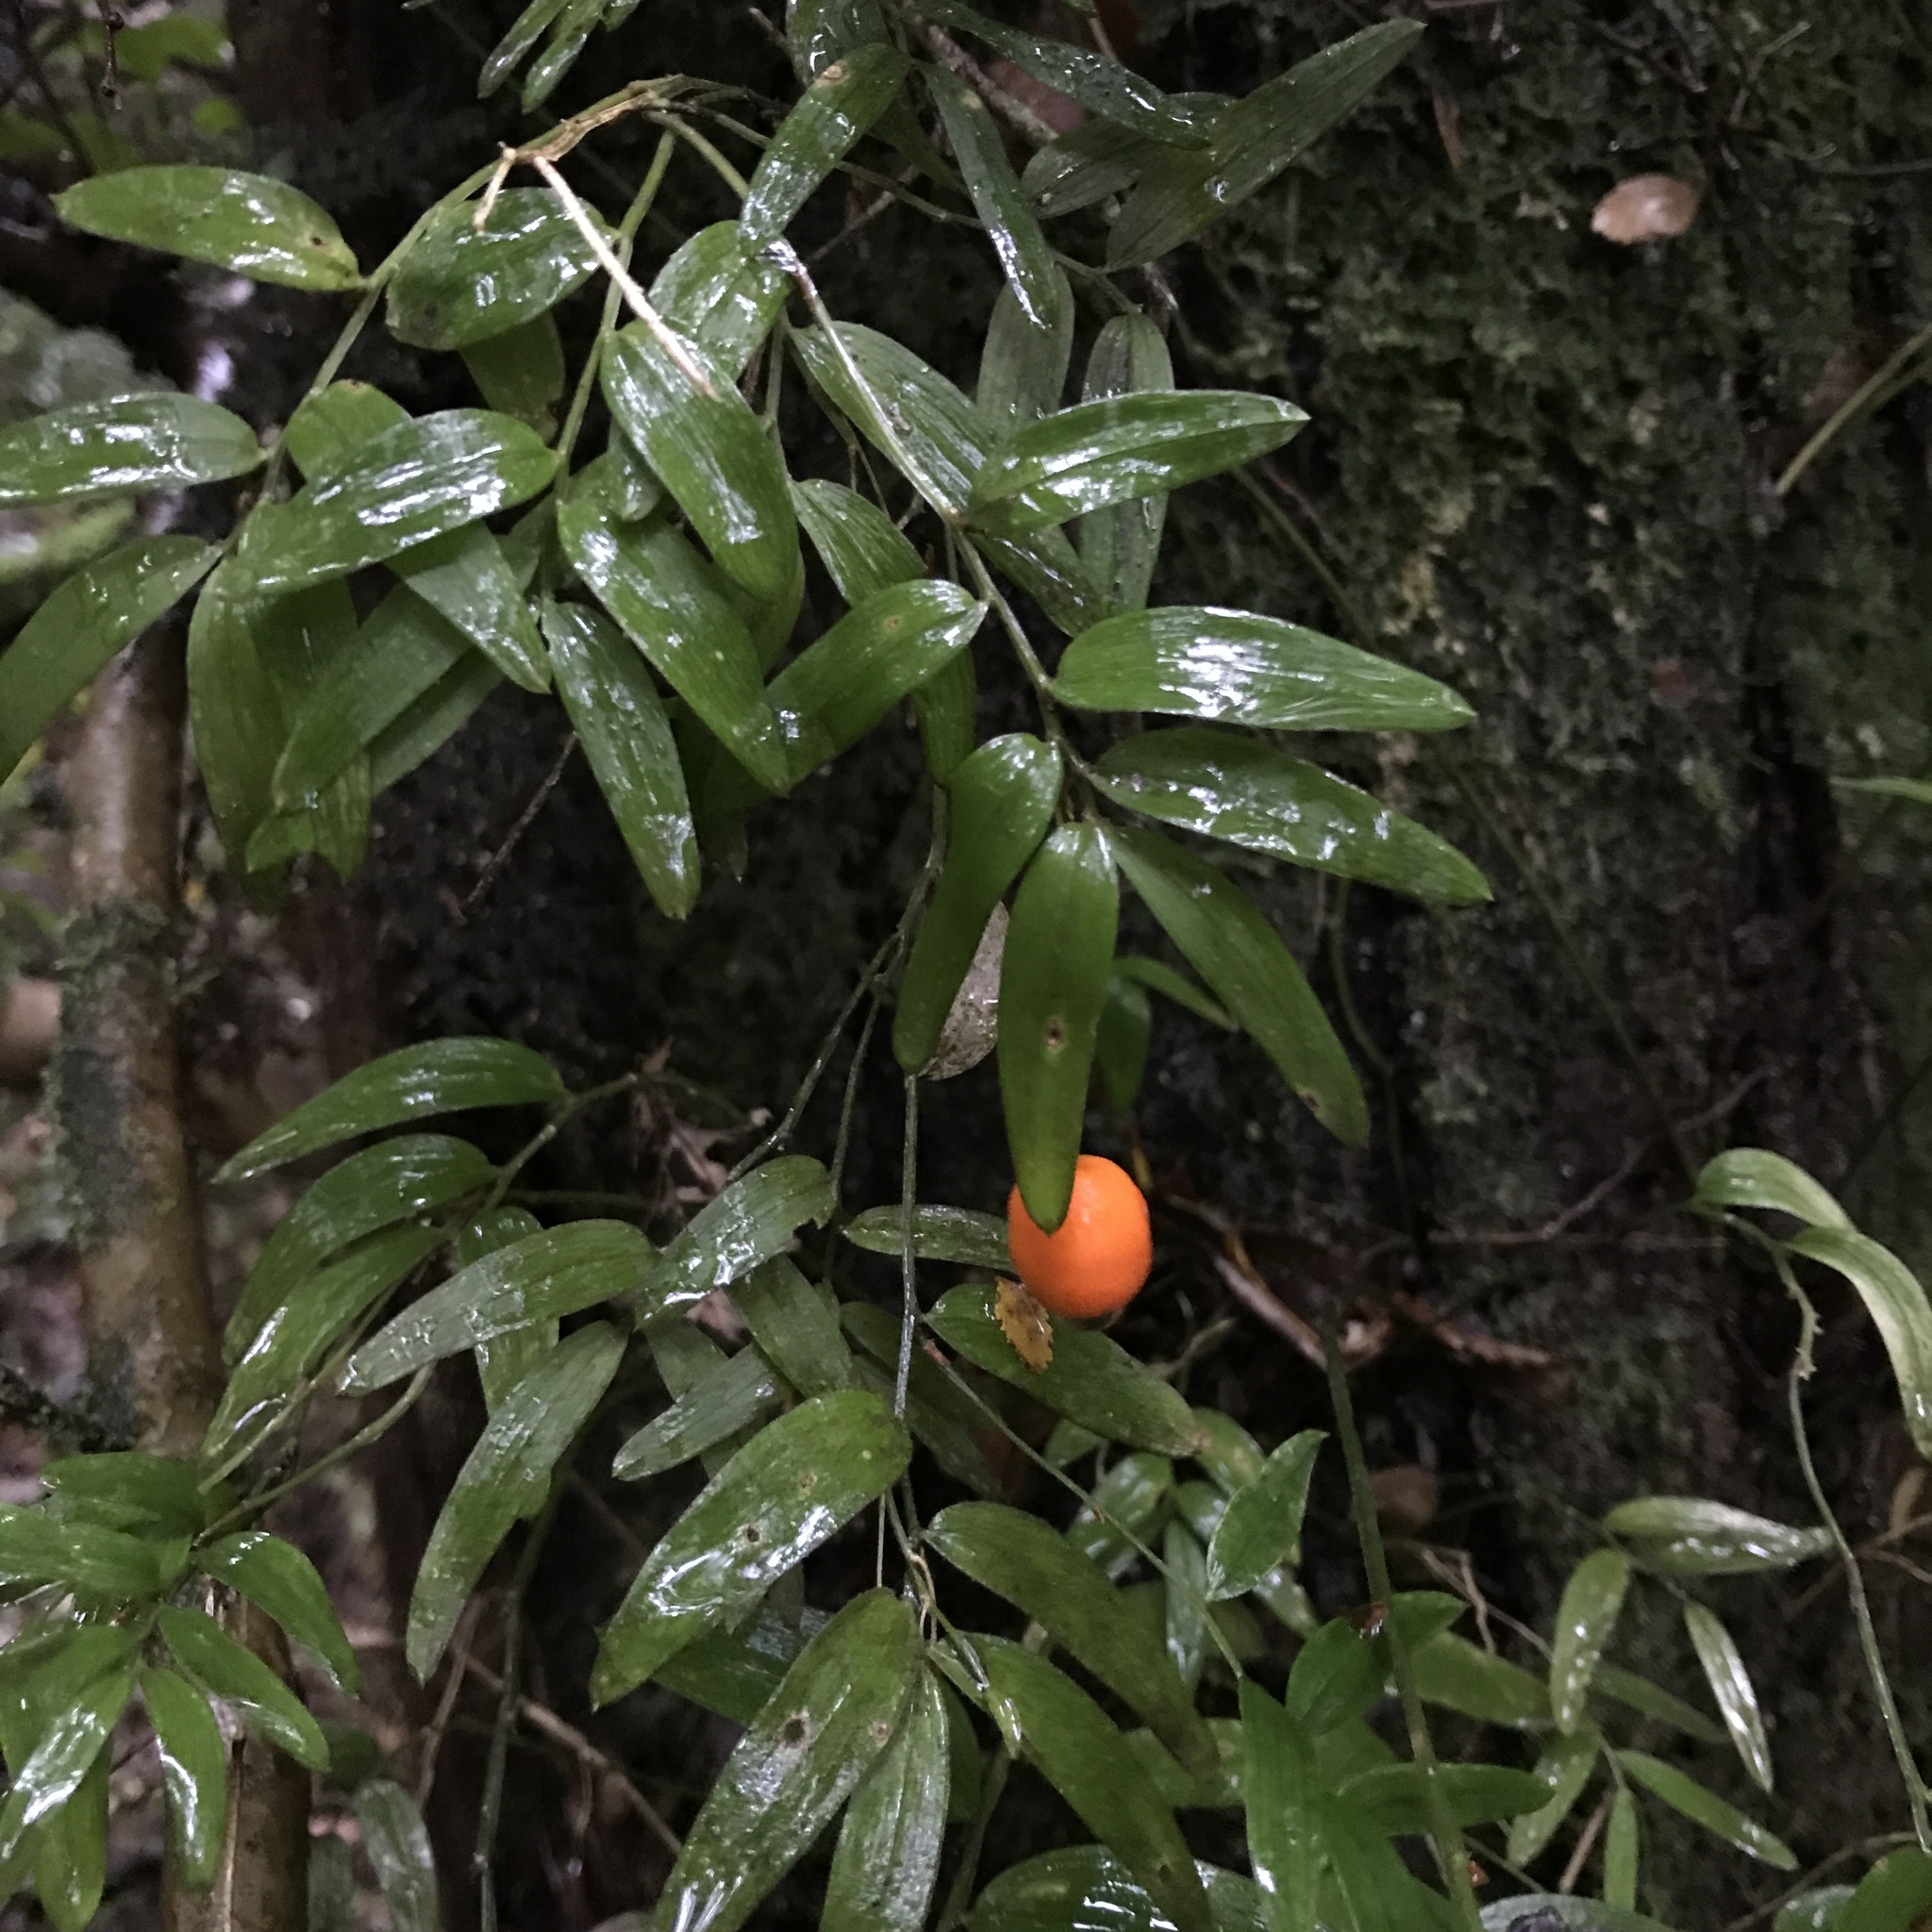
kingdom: Plantae
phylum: Tracheophyta
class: Liliopsida
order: Liliales
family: Alstroemeriaceae
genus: Luzuriaga
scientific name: Luzuriaga radicans
